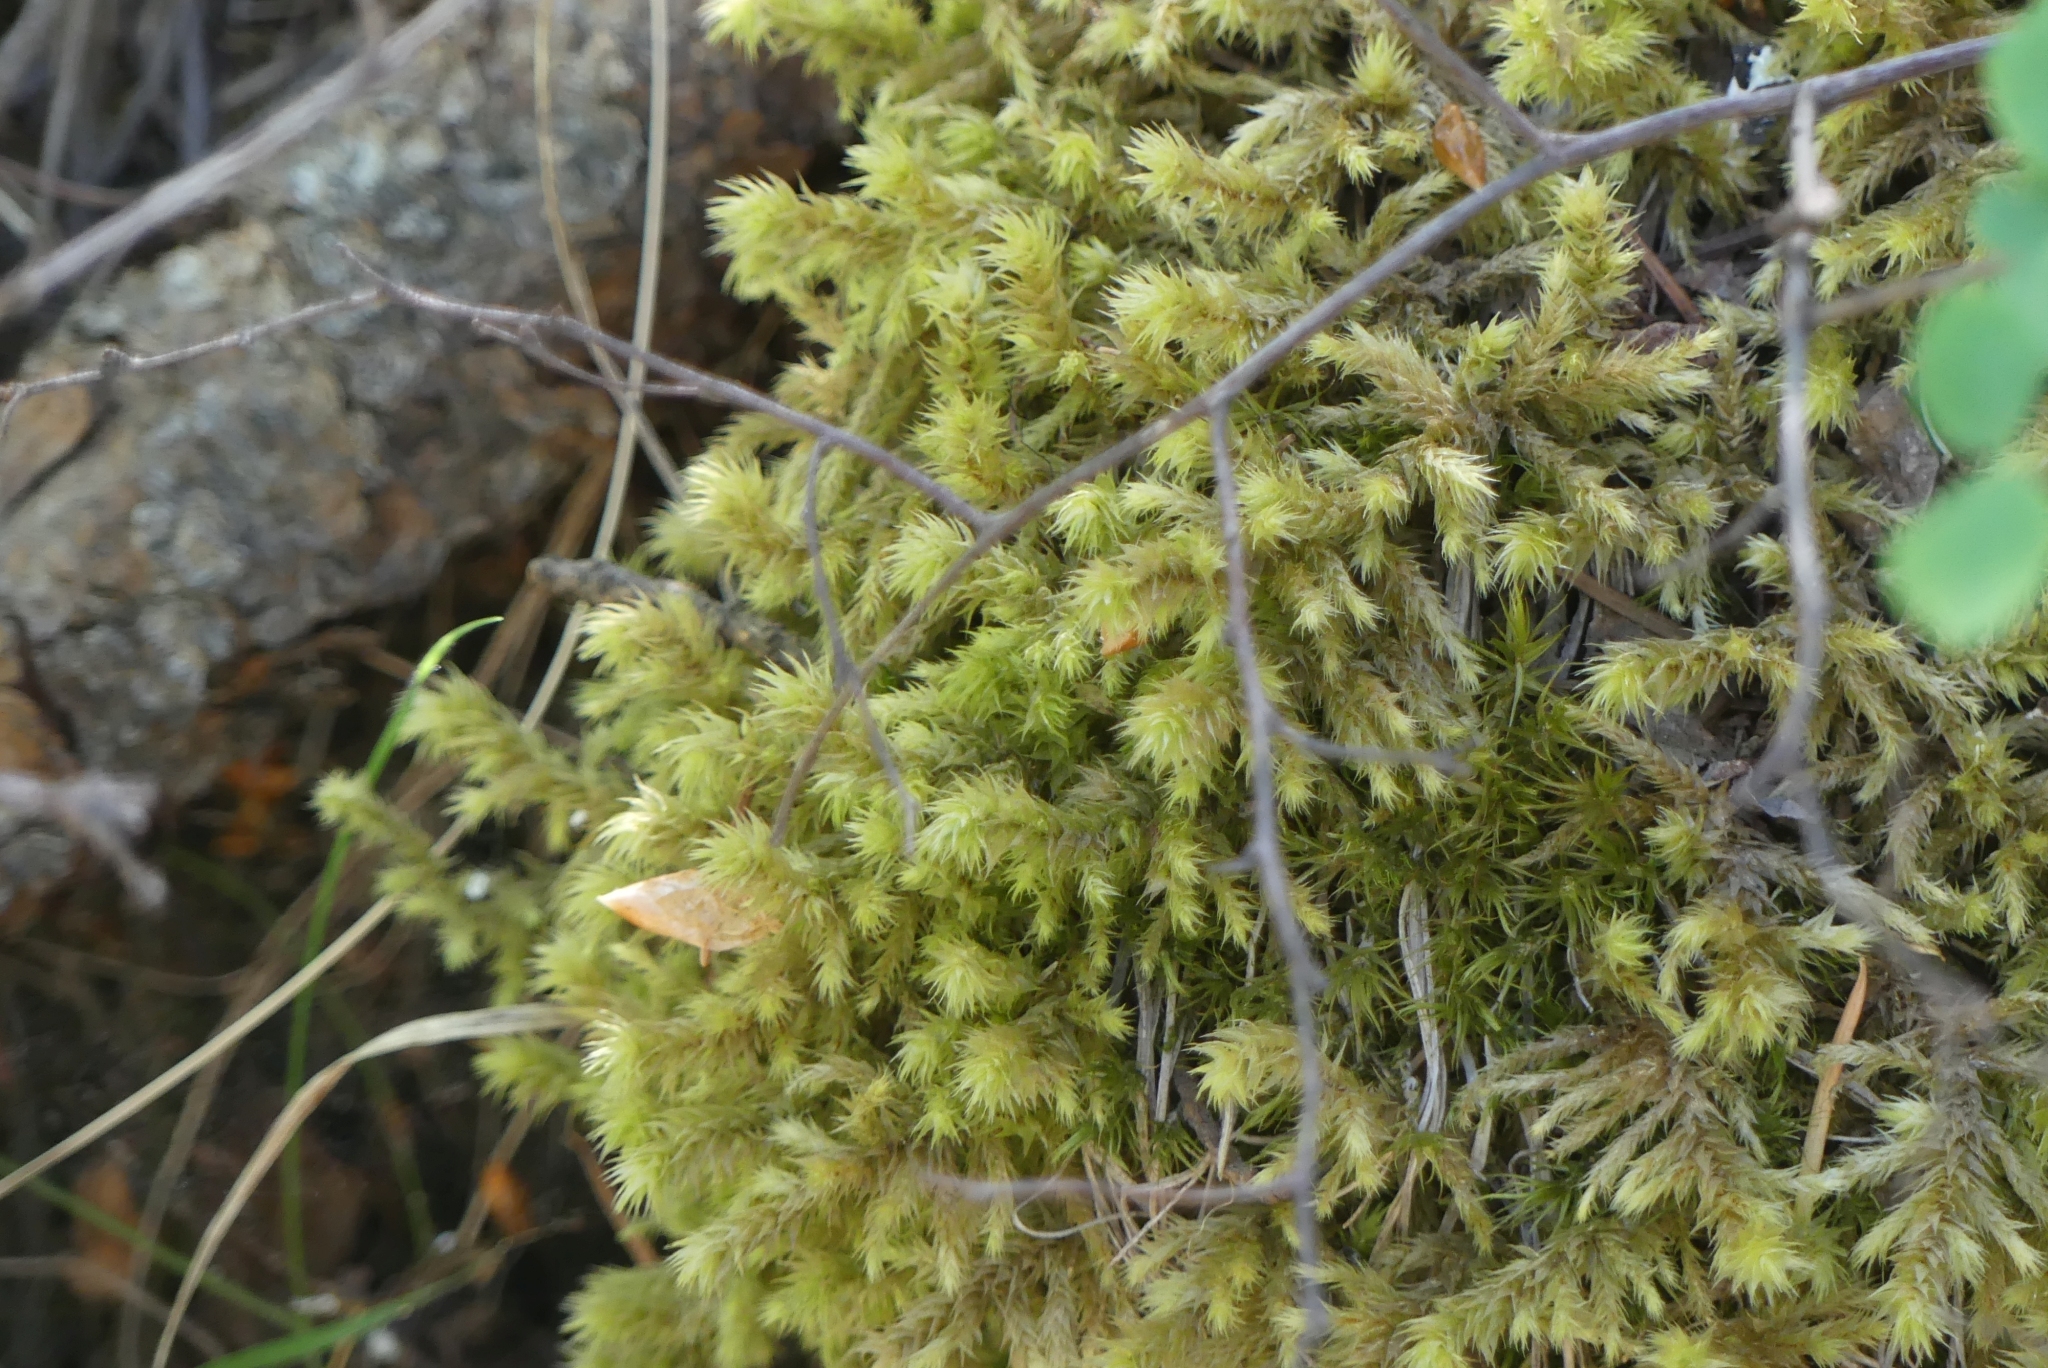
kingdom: Plantae
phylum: Bryophyta
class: Bryopsida
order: Hypnales
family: Hylocomiaceae
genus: Hylocomiadelphus
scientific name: Hylocomiadelphus triquetrus
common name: Rough goose neck moss
